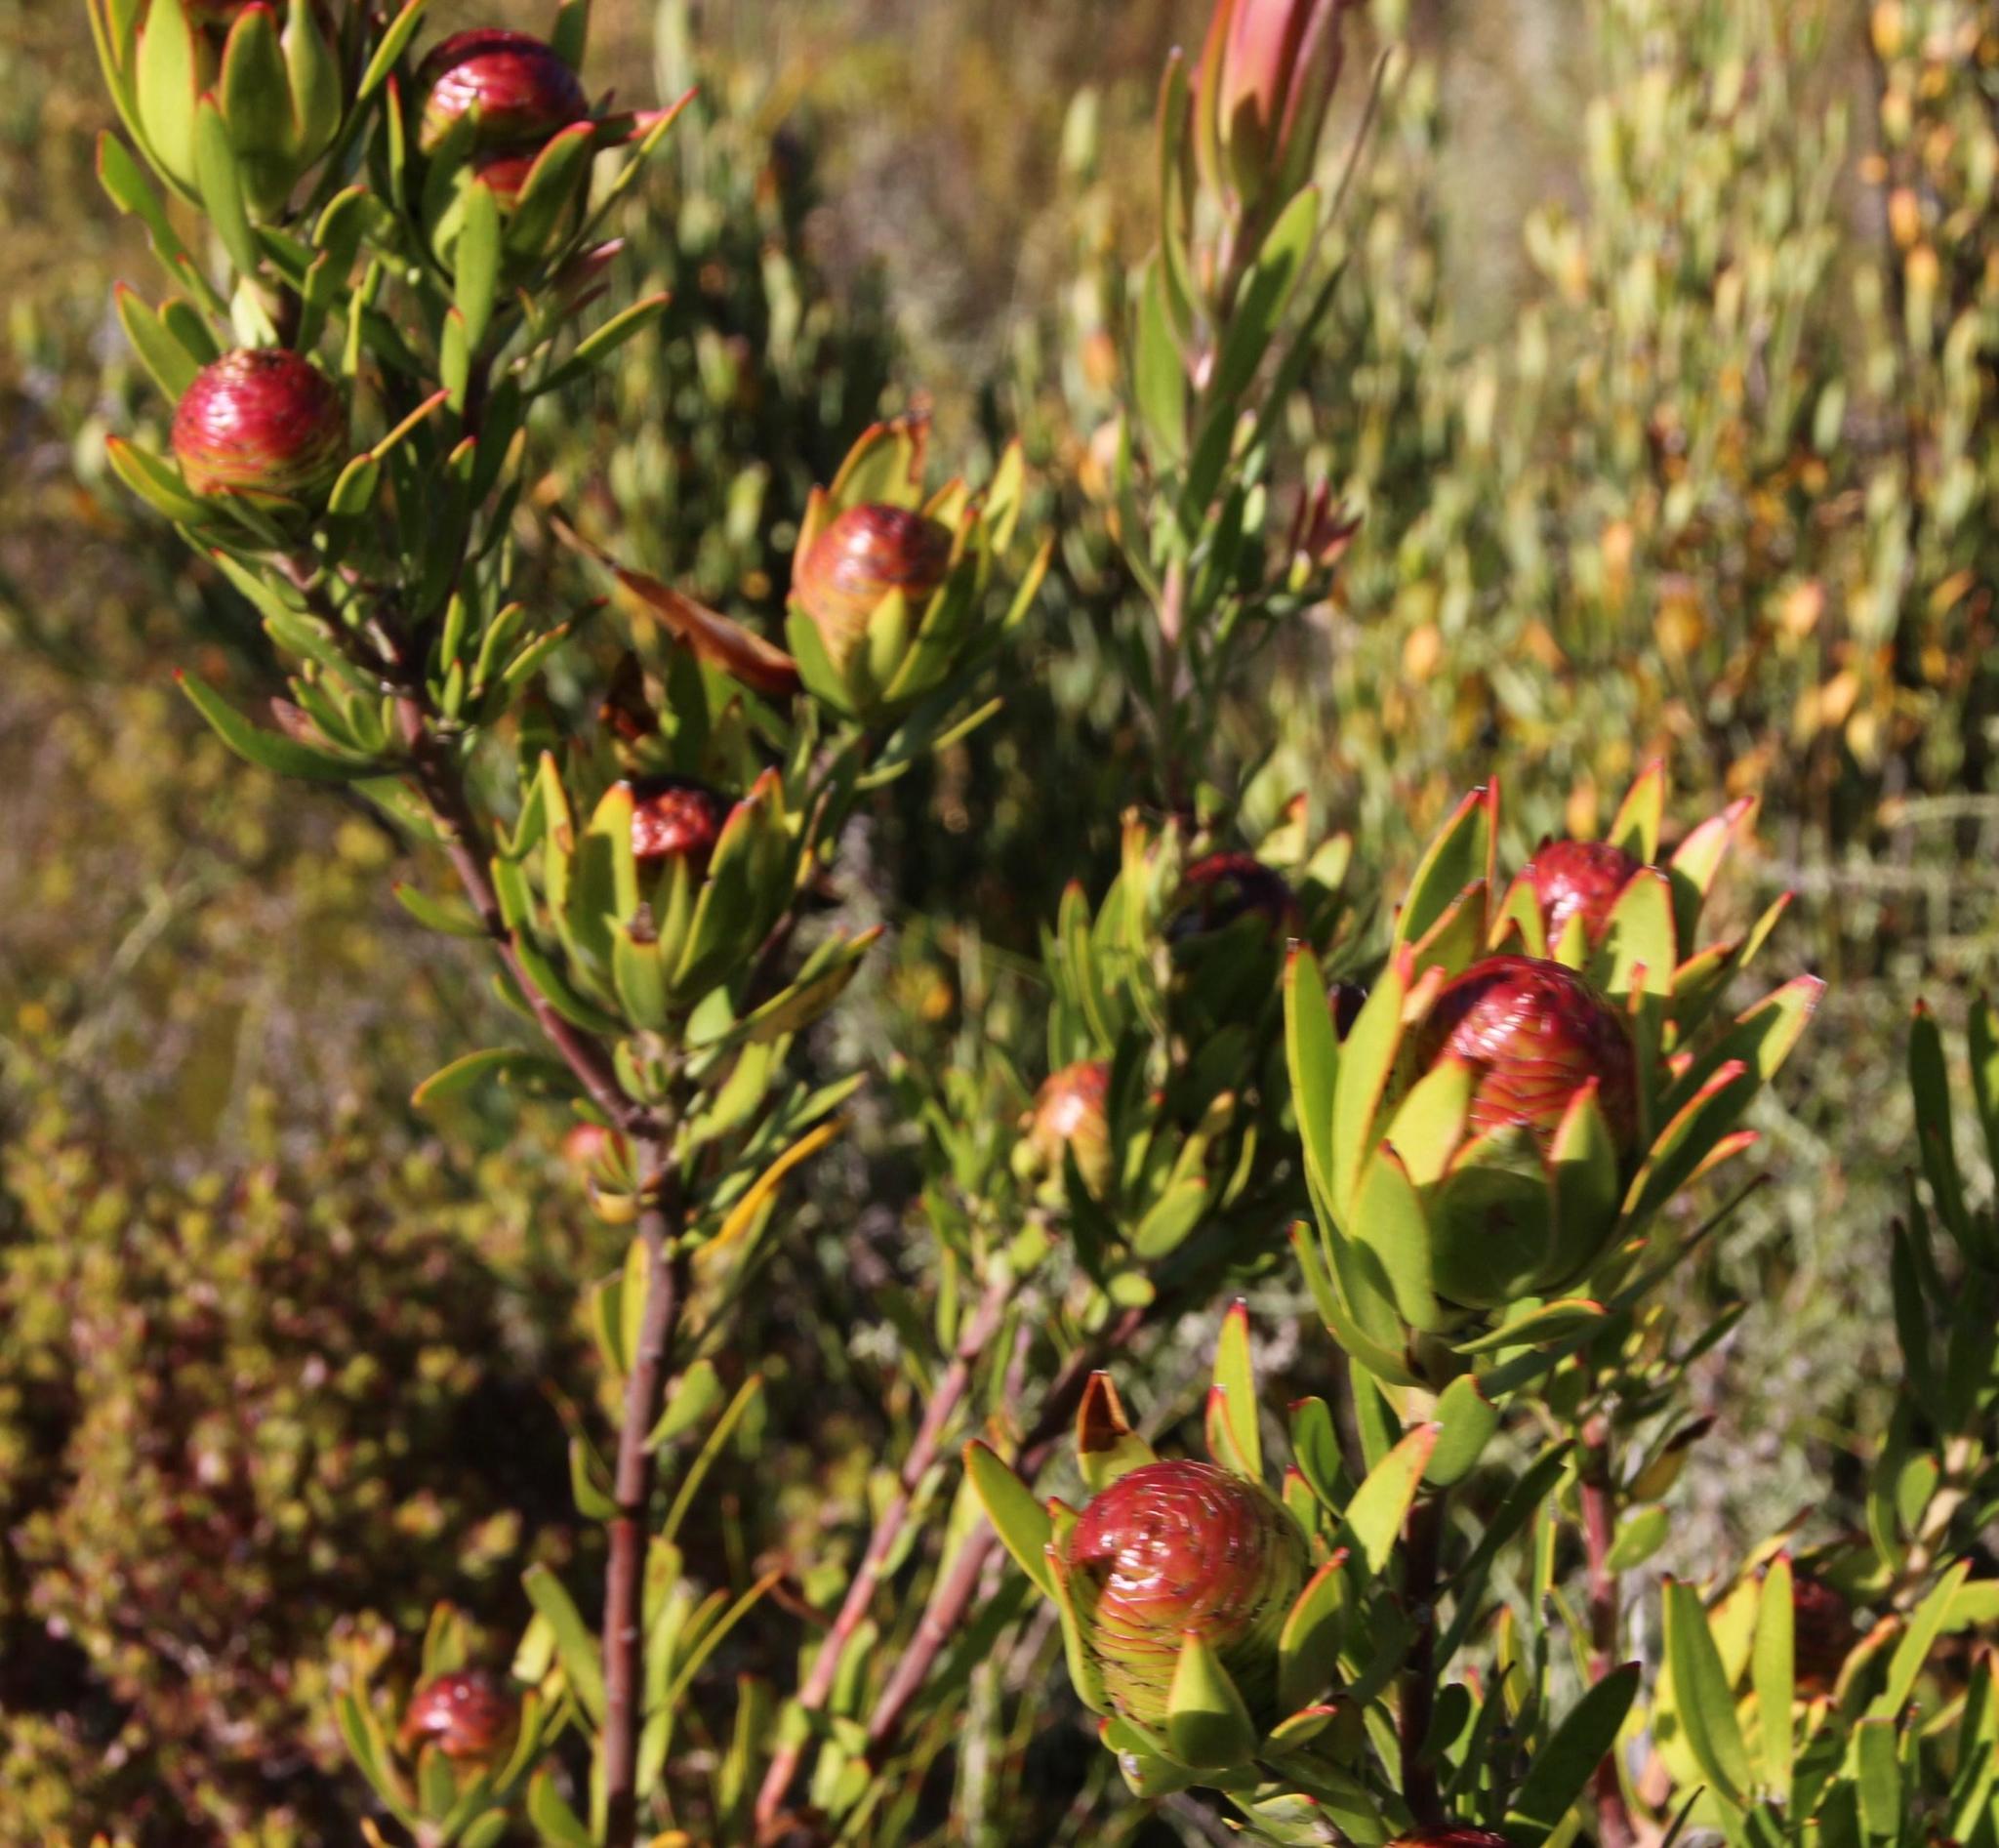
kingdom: Plantae
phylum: Tracheophyta
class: Magnoliopsida
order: Proteales
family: Proteaceae
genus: Leucadendron
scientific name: Leucadendron spissifolium
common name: Spear-leaf conebush
